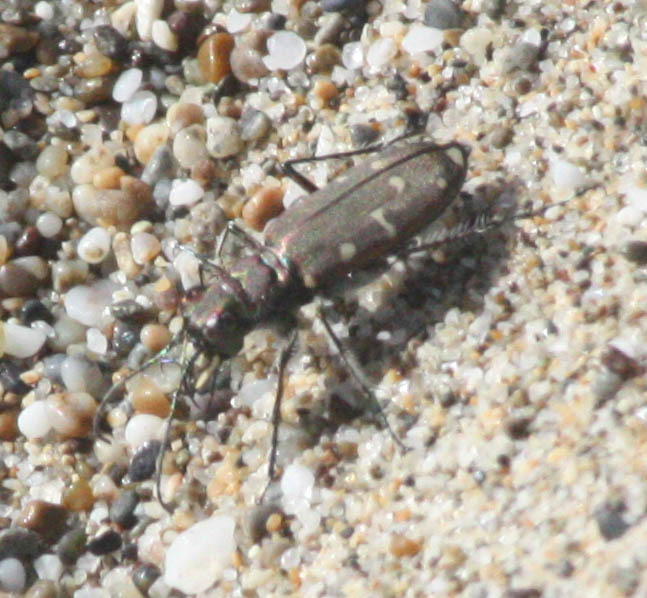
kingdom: Animalia
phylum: Arthropoda
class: Insecta
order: Coleoptera
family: Carabidae
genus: Cicindela
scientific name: Cicindela oregona
